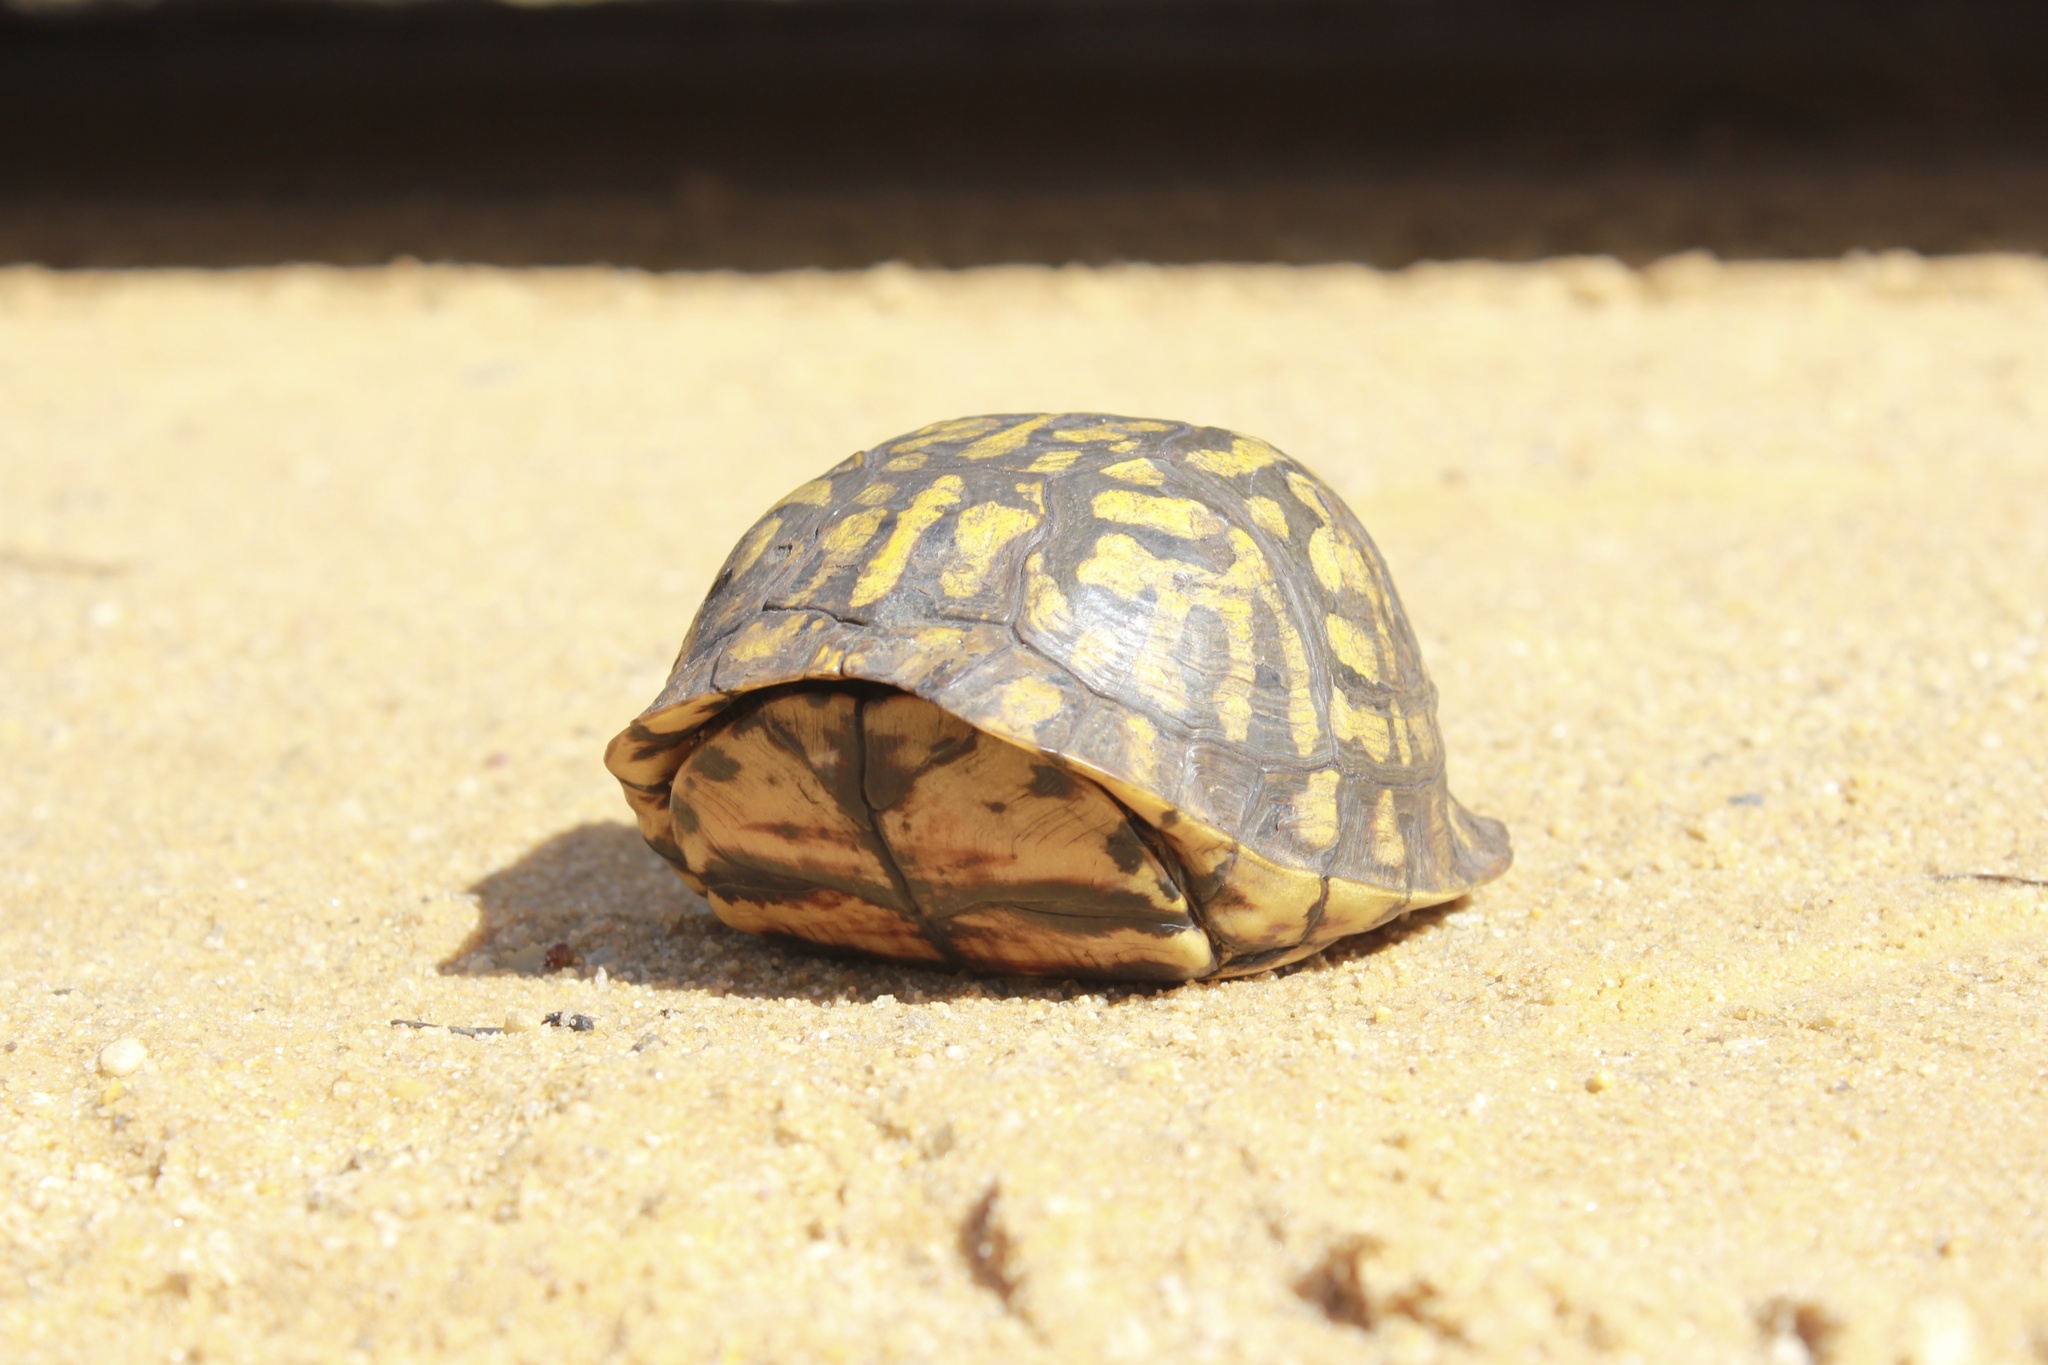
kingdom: Animalia
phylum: Chordata
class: Testudines
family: Emydidae
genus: Terrapene
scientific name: Terrapene carolina
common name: Common box turtle
